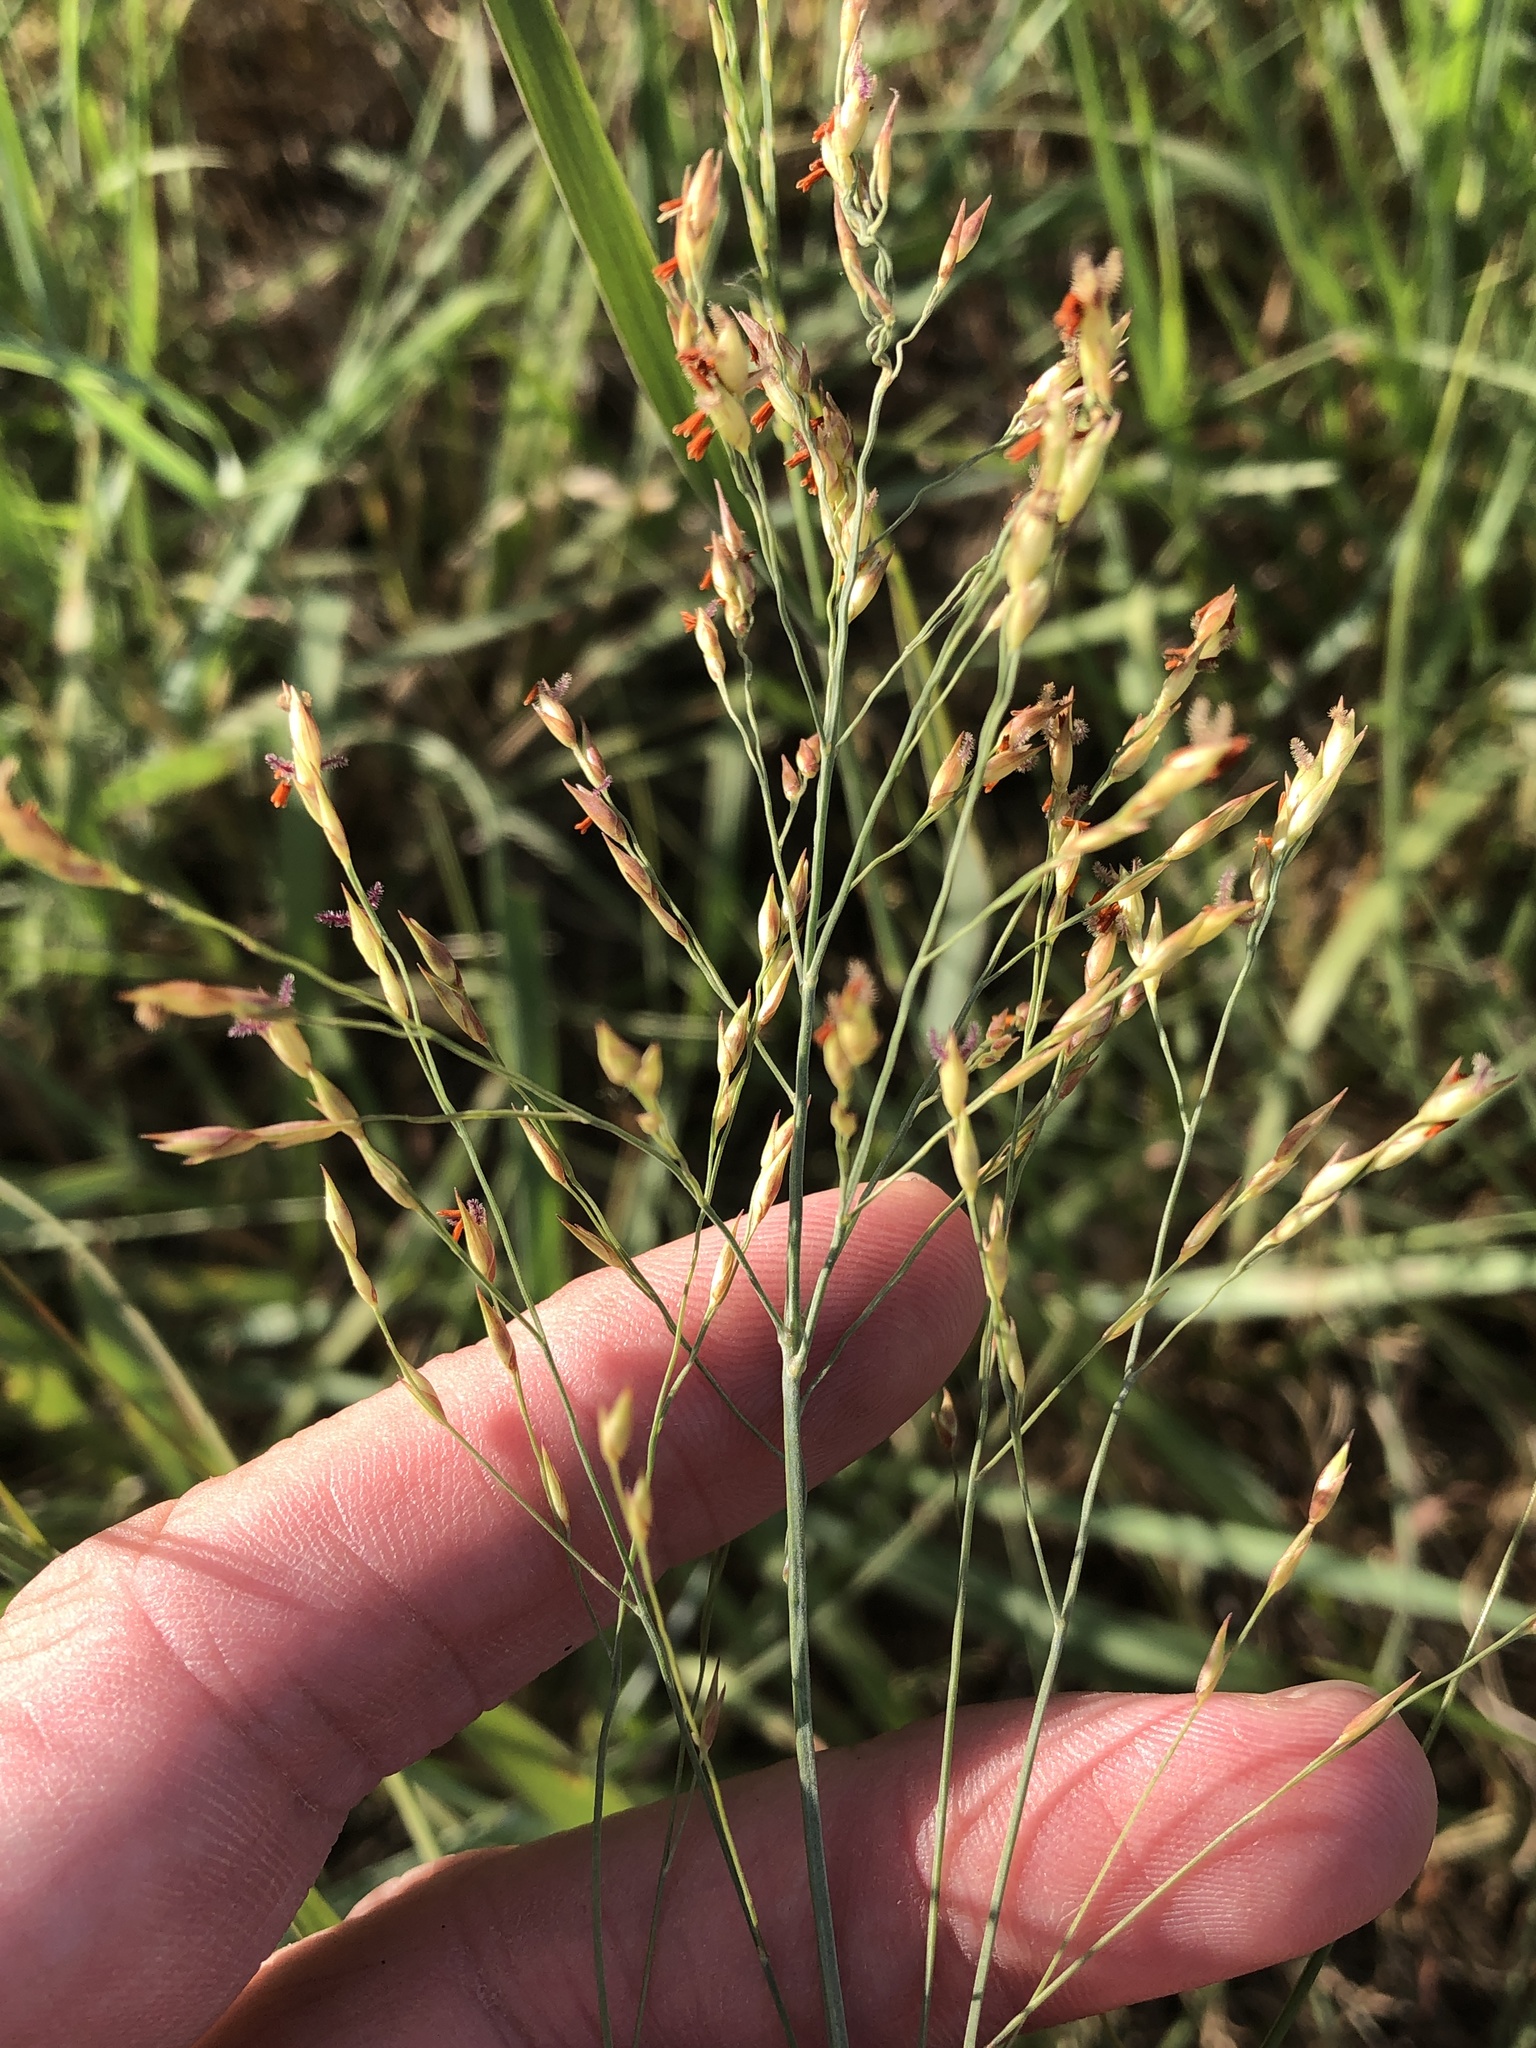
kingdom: Plantae
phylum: Tracheophyta
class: Liliopsida
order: Poales
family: Poaceae
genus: Panicum
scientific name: Panicum virgatum
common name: Switchgrass
